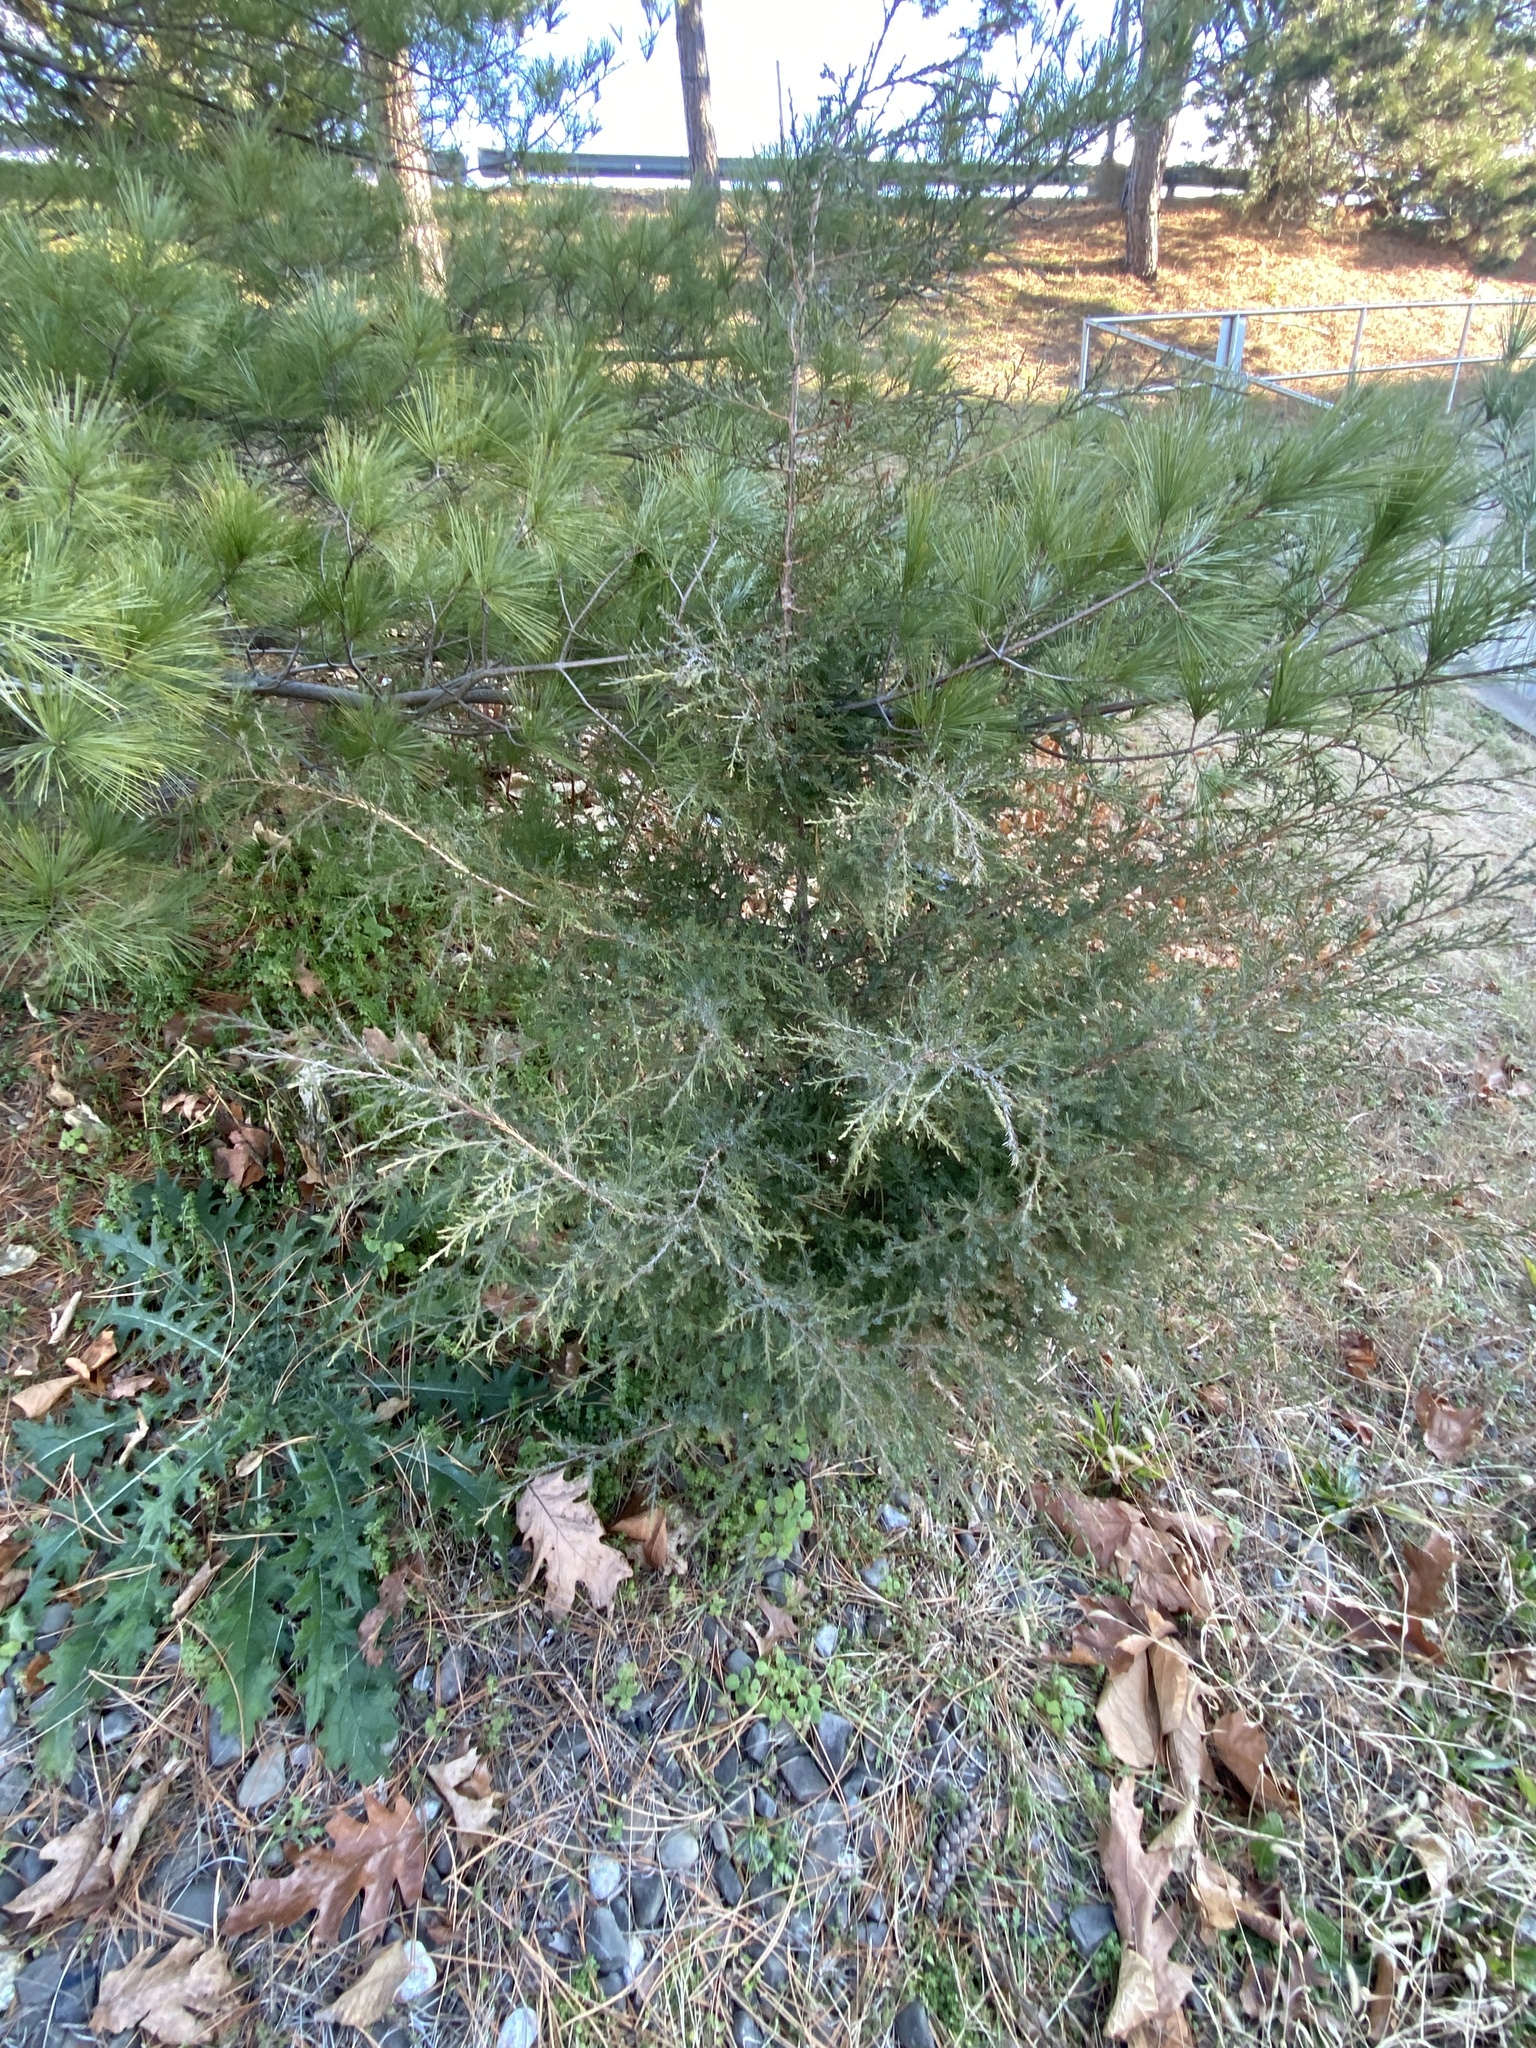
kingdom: Plantae
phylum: Tracheophyta
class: Pinopsida
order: Pinales
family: Cupressaceae
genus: Juniperus
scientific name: Juniperus virginiana
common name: Red juniper
